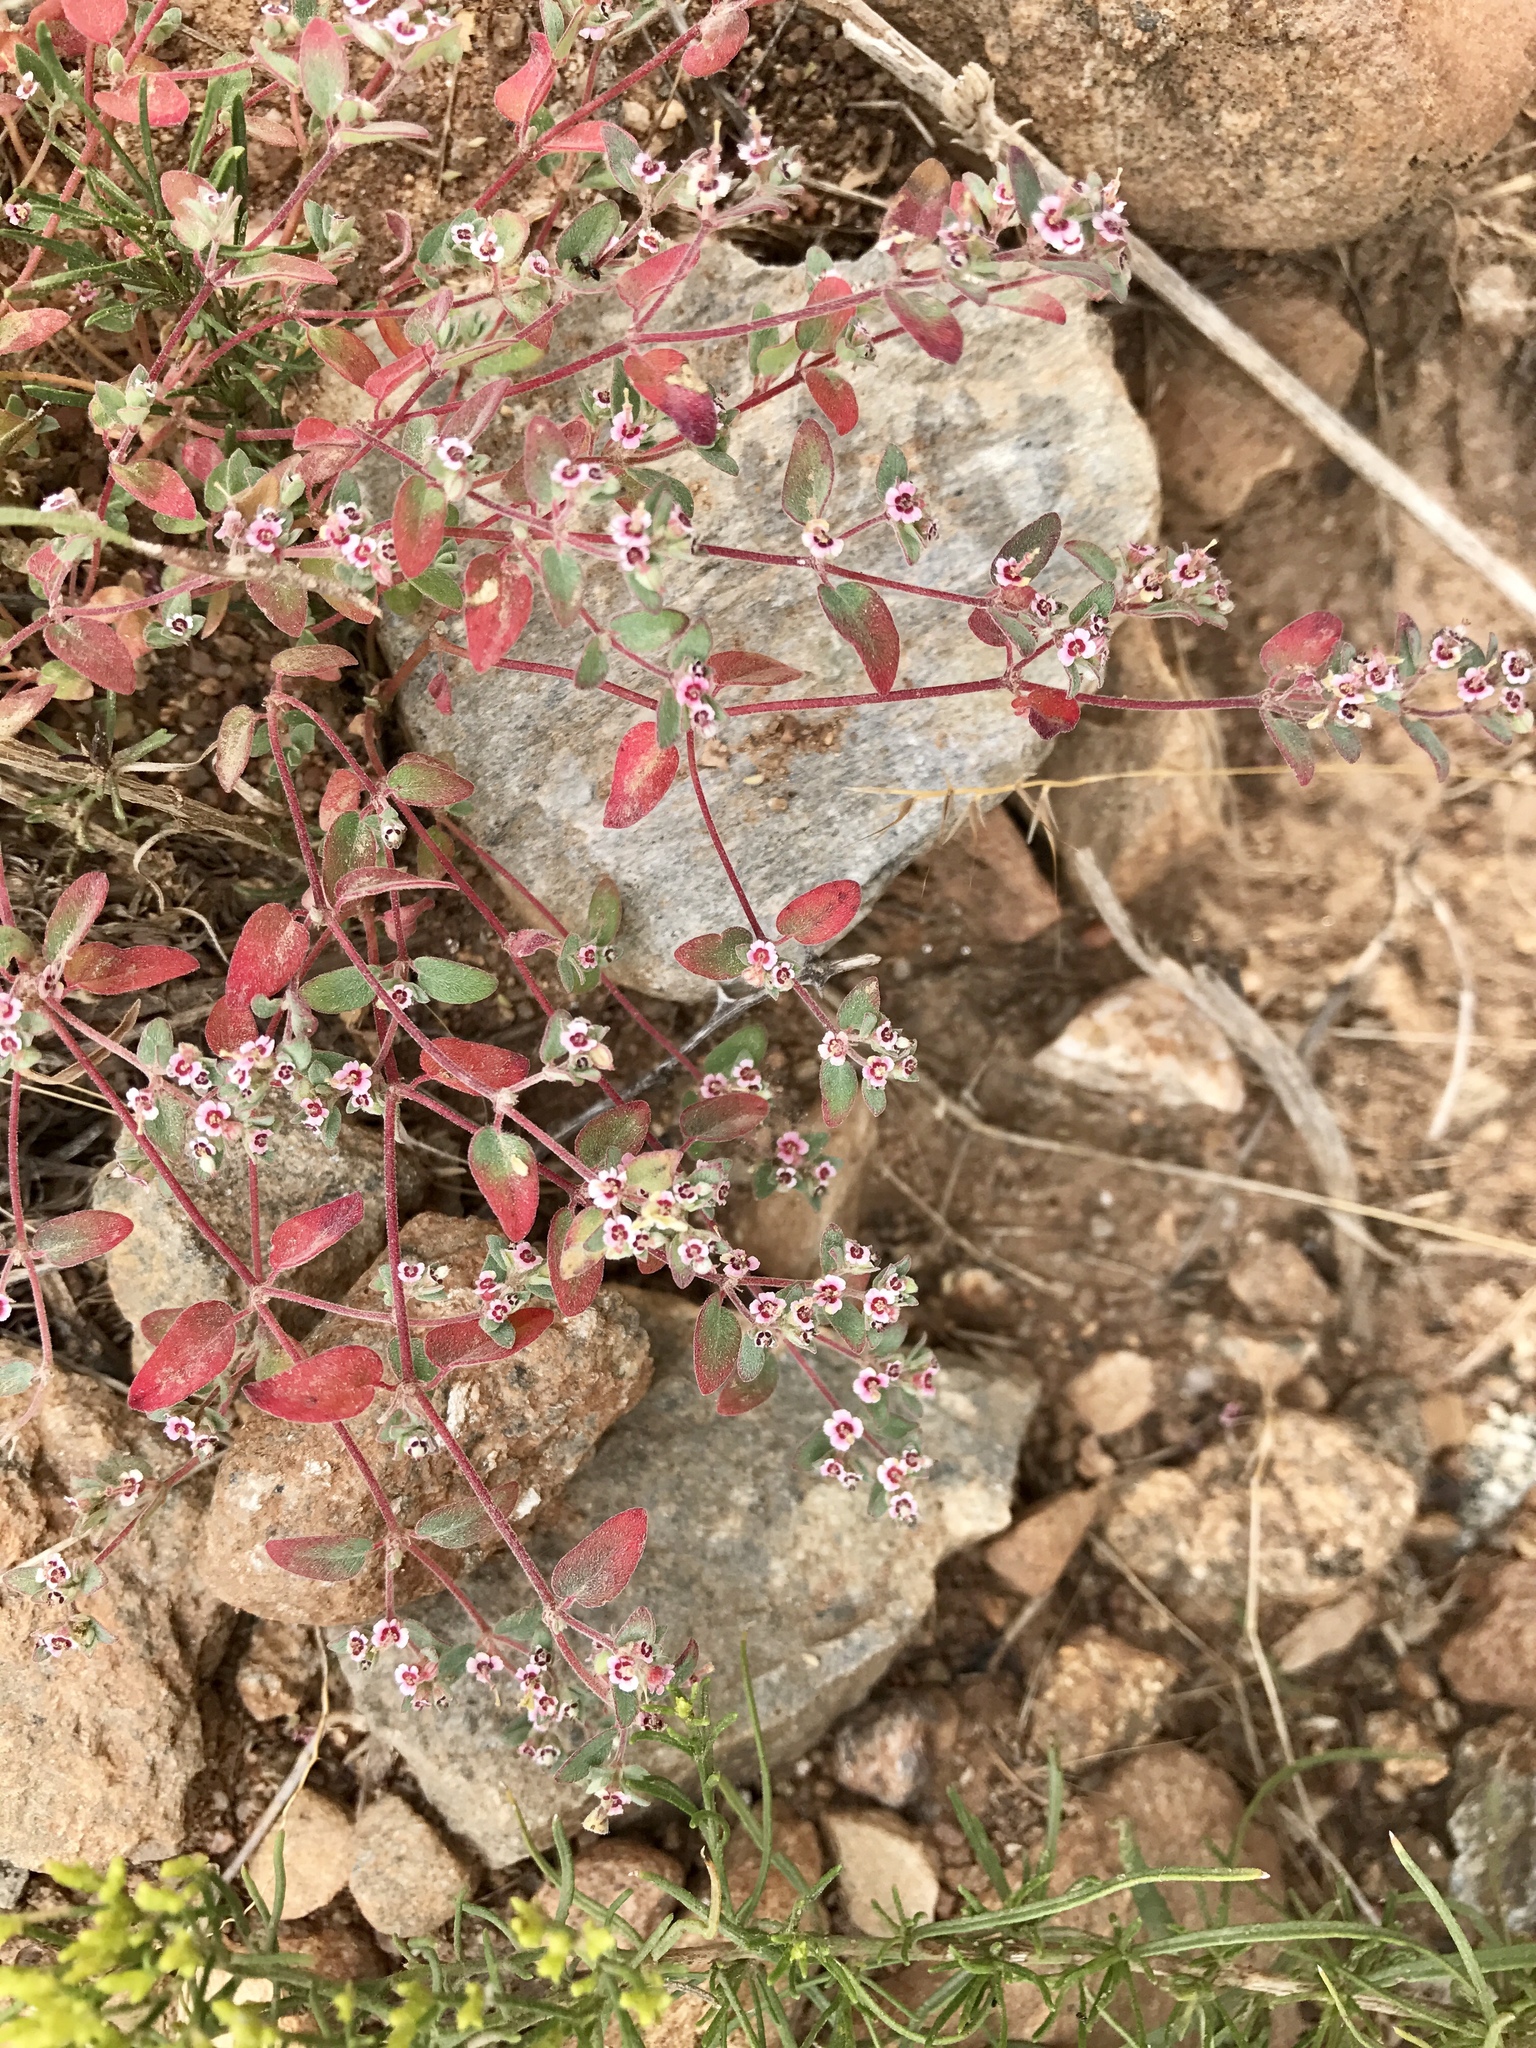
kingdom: Plantae
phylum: Tracheophyta
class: Magnoliopsida
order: Malpighiales
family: Euphorbiaceae
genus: Euphorbia
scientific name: Euphorbia melanadenia
